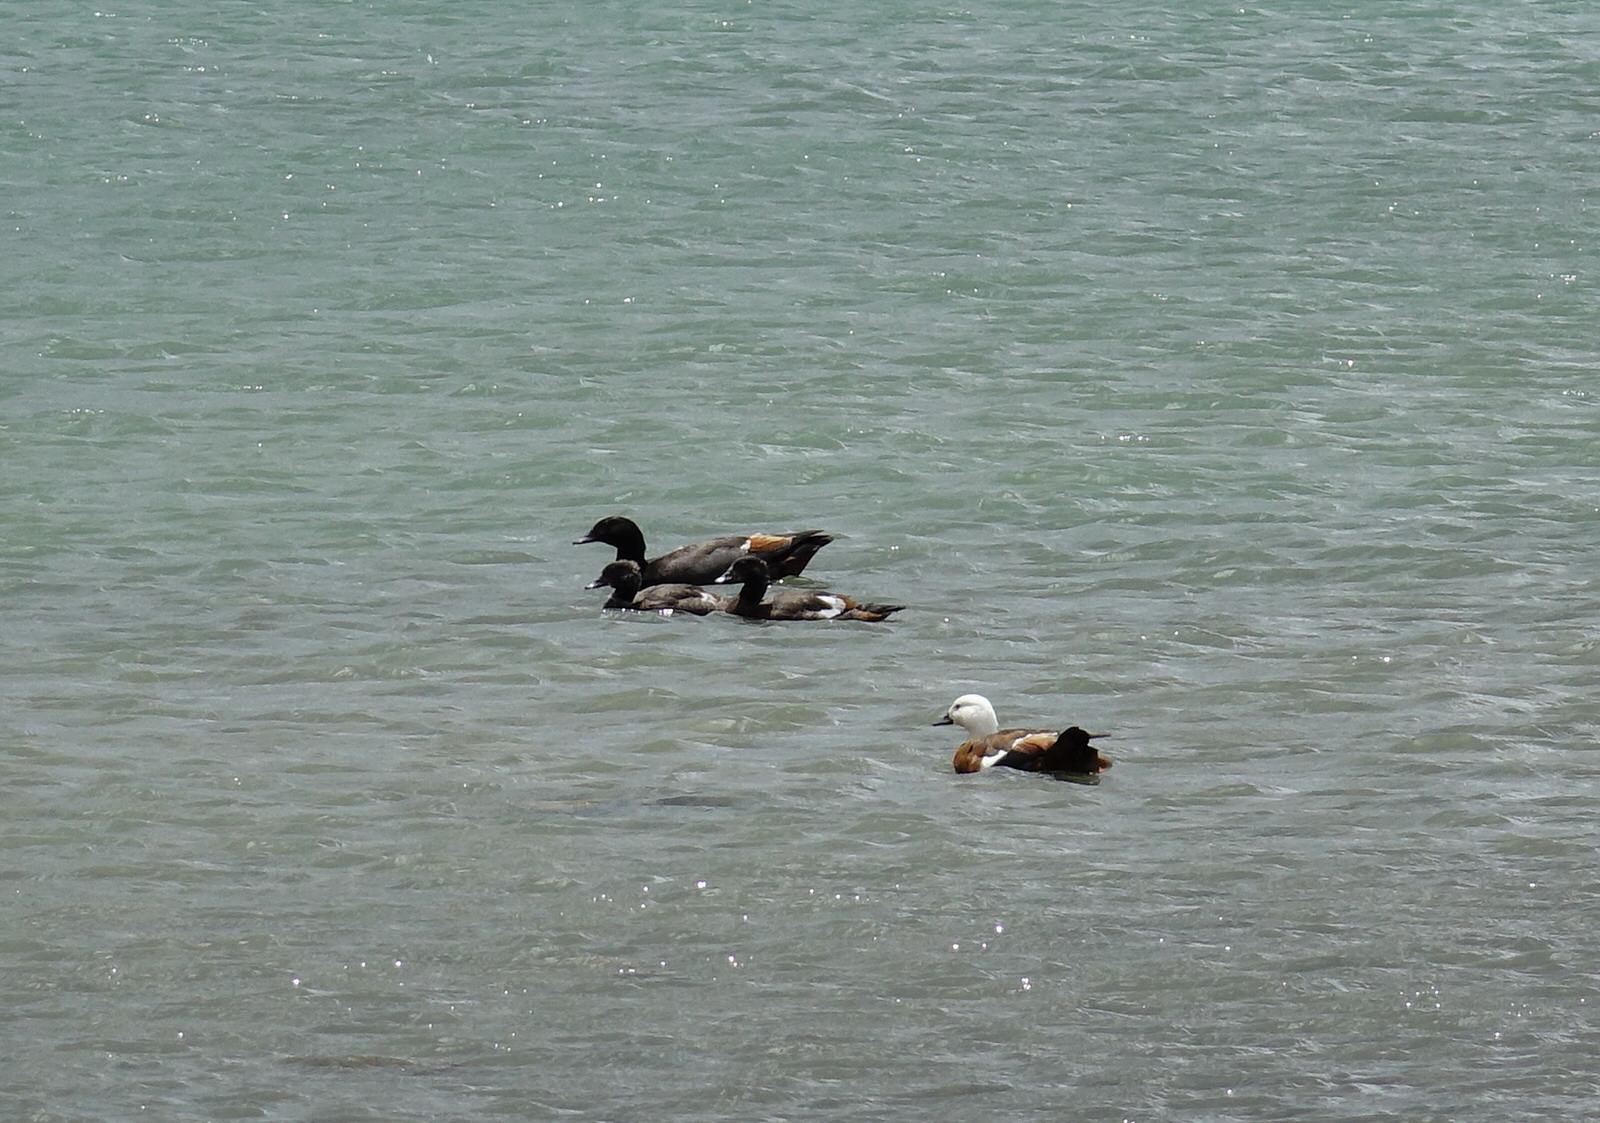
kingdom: Animalia
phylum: Chordata
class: Aves
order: Anseriformes
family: Anatidae
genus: Tadorna
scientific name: Tadorna variegata
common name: Paradise shelduck
